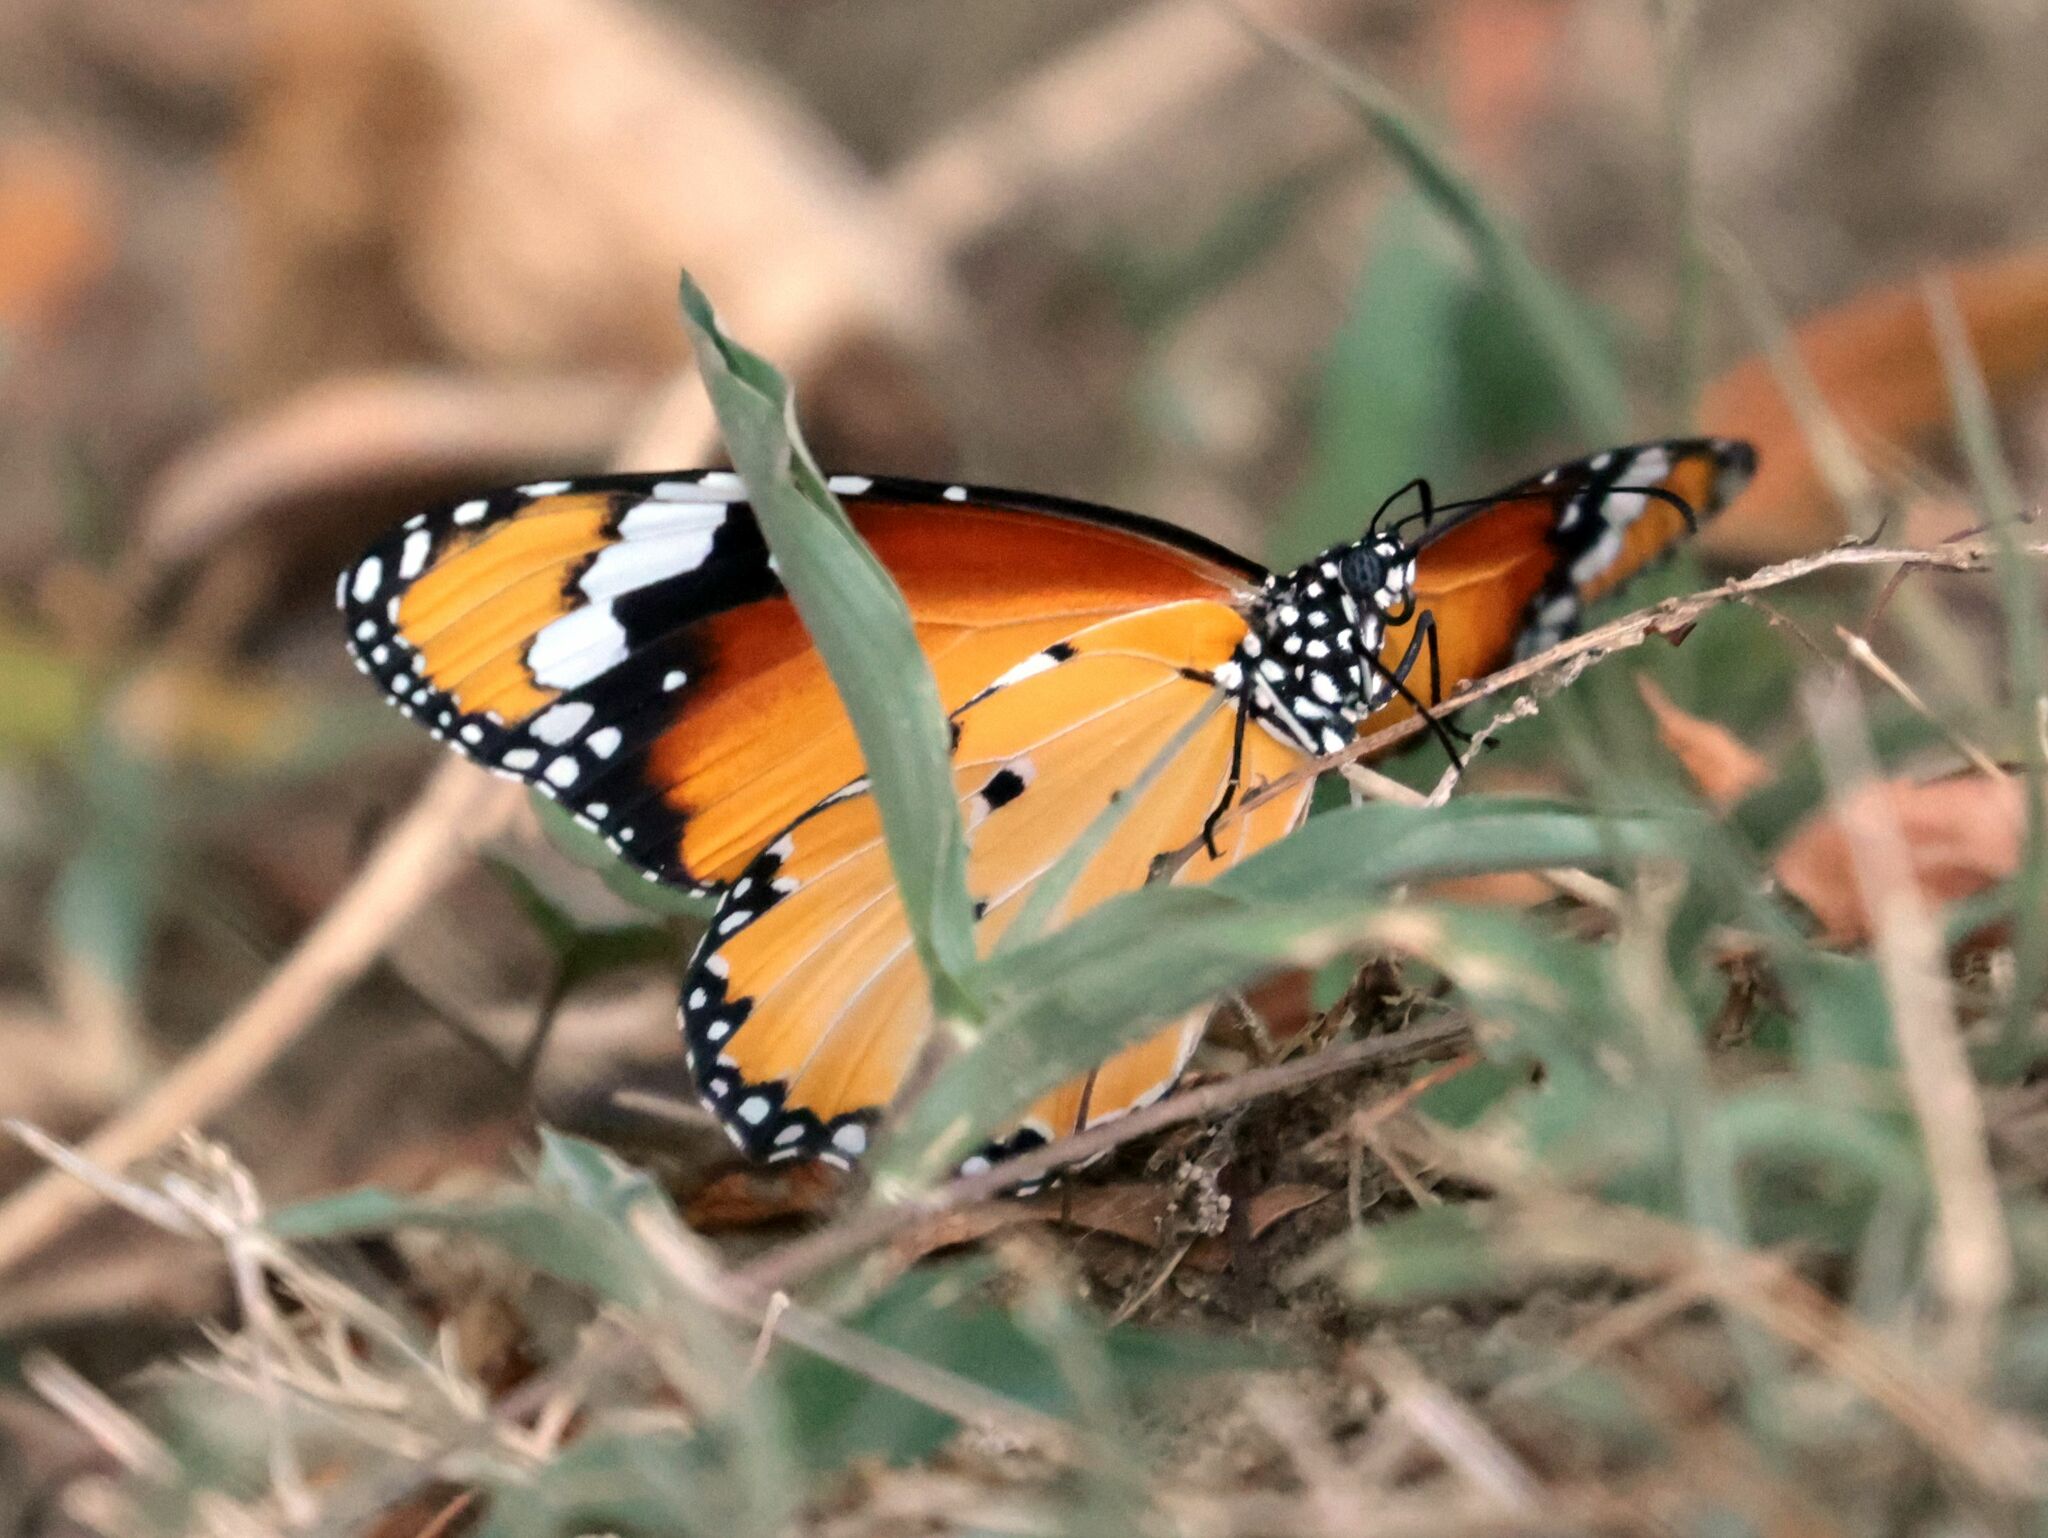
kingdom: Animalia
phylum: Arthropoda
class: Insecta
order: Lepidoptera
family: Nymphalidae
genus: Danaus
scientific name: Danaus chrysippus
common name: Plain tiger
